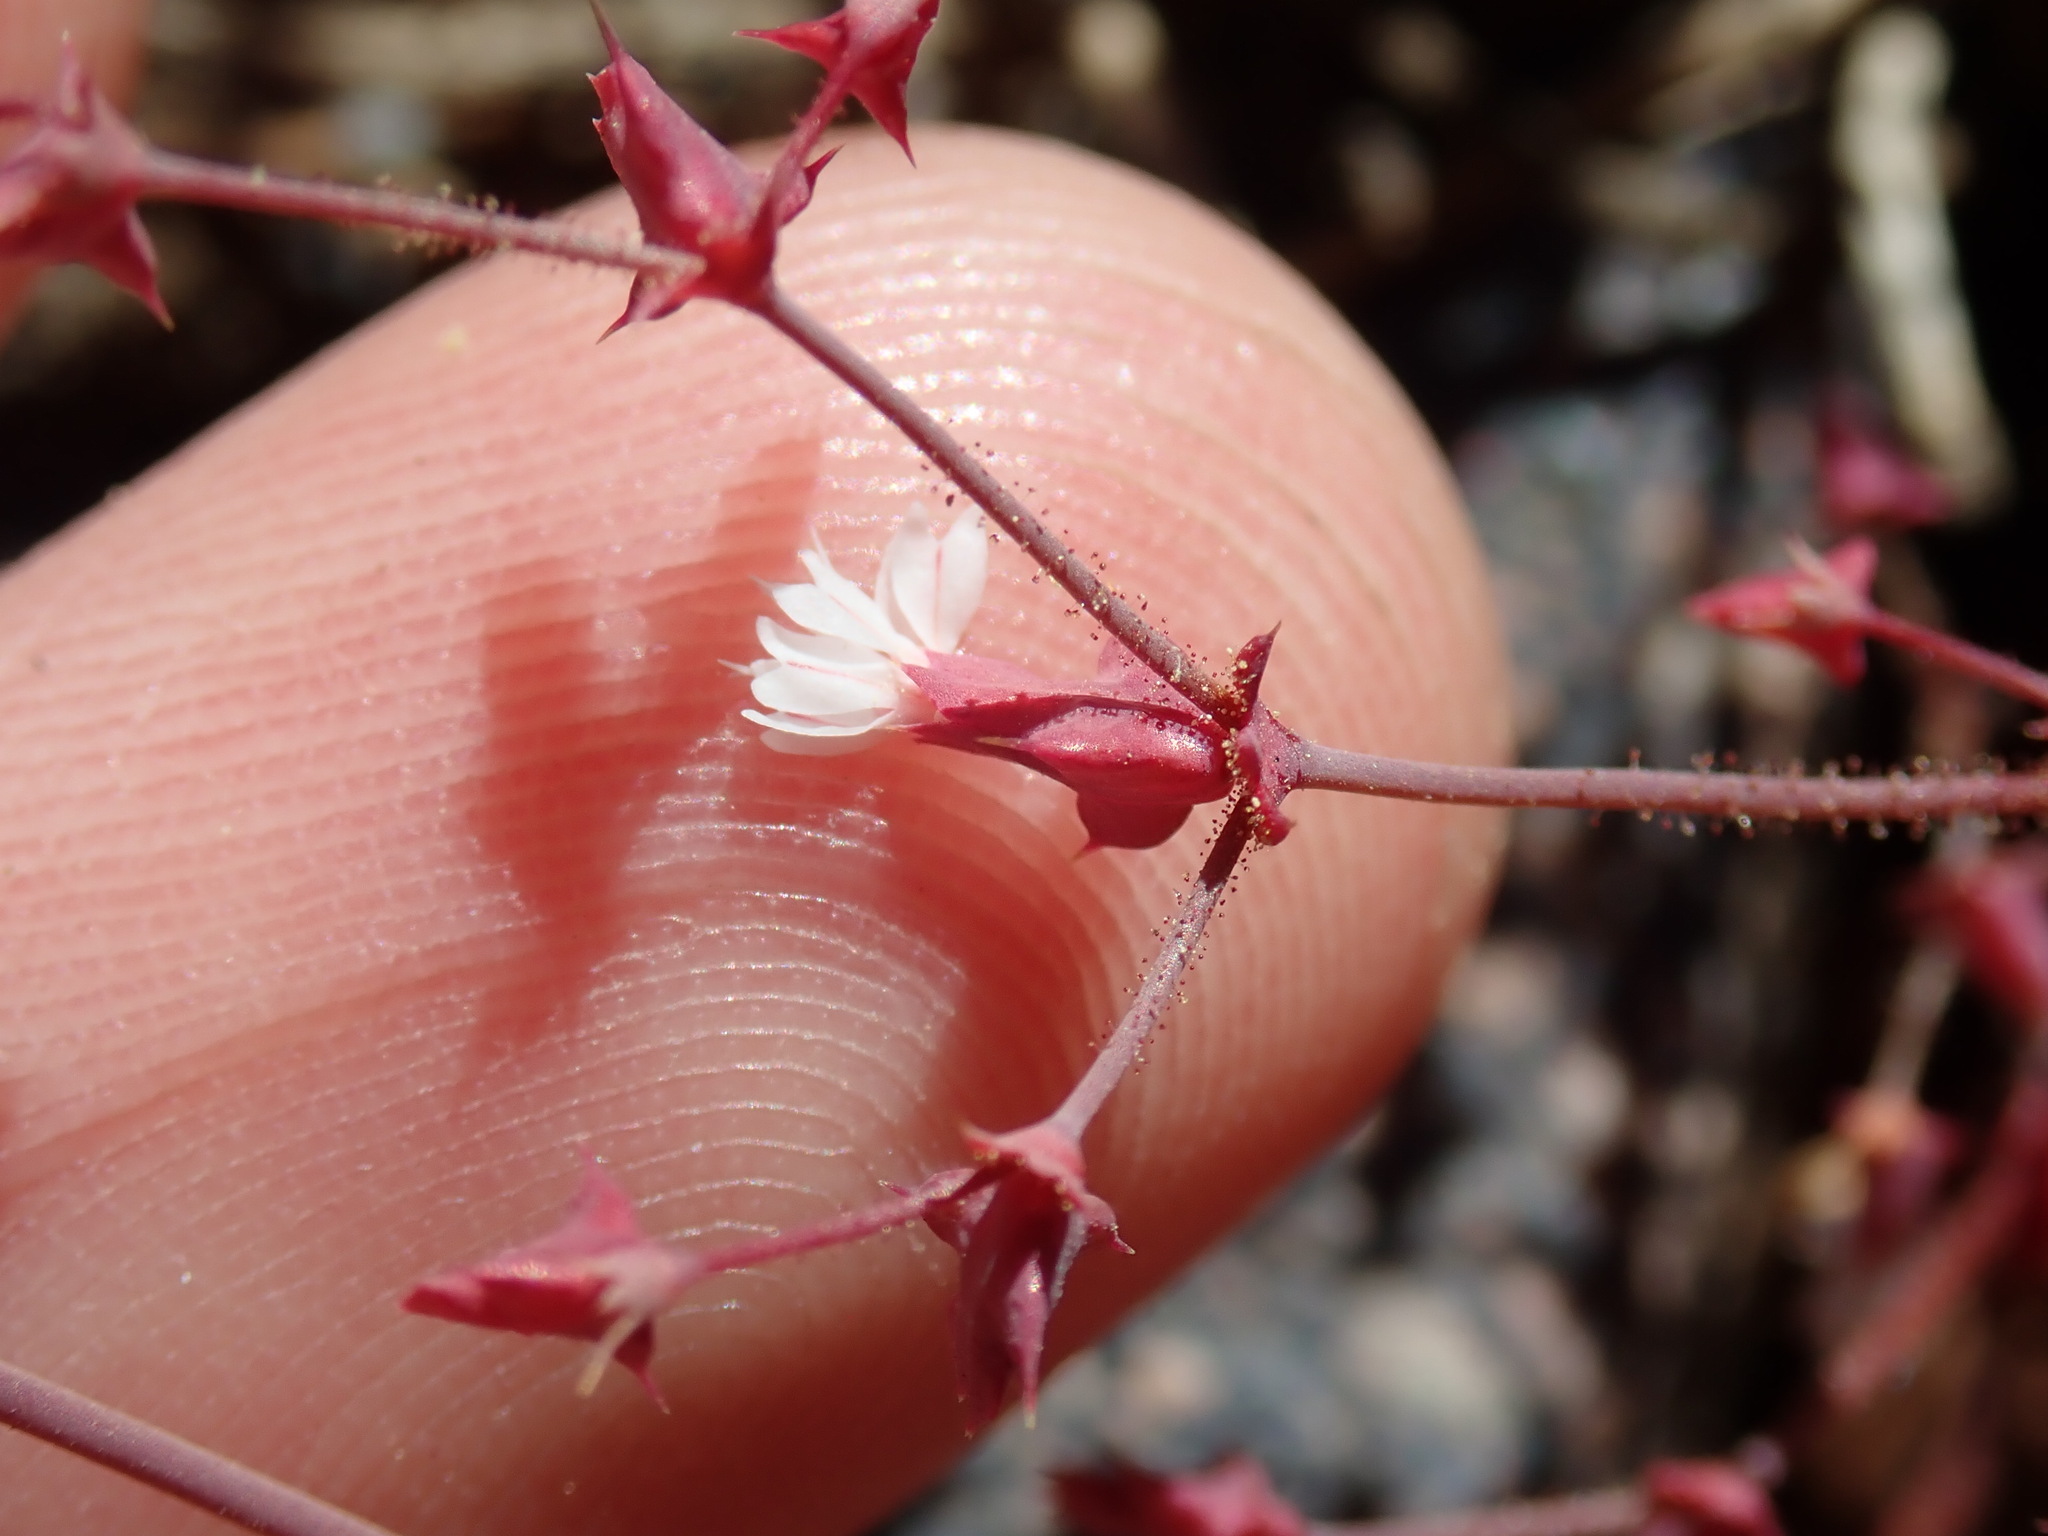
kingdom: Plantae
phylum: Tracheophyta
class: Magnoliopsida
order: Caryophyllales
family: Polygonaceae
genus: Centrostegia
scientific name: Centrostegia thurberi
